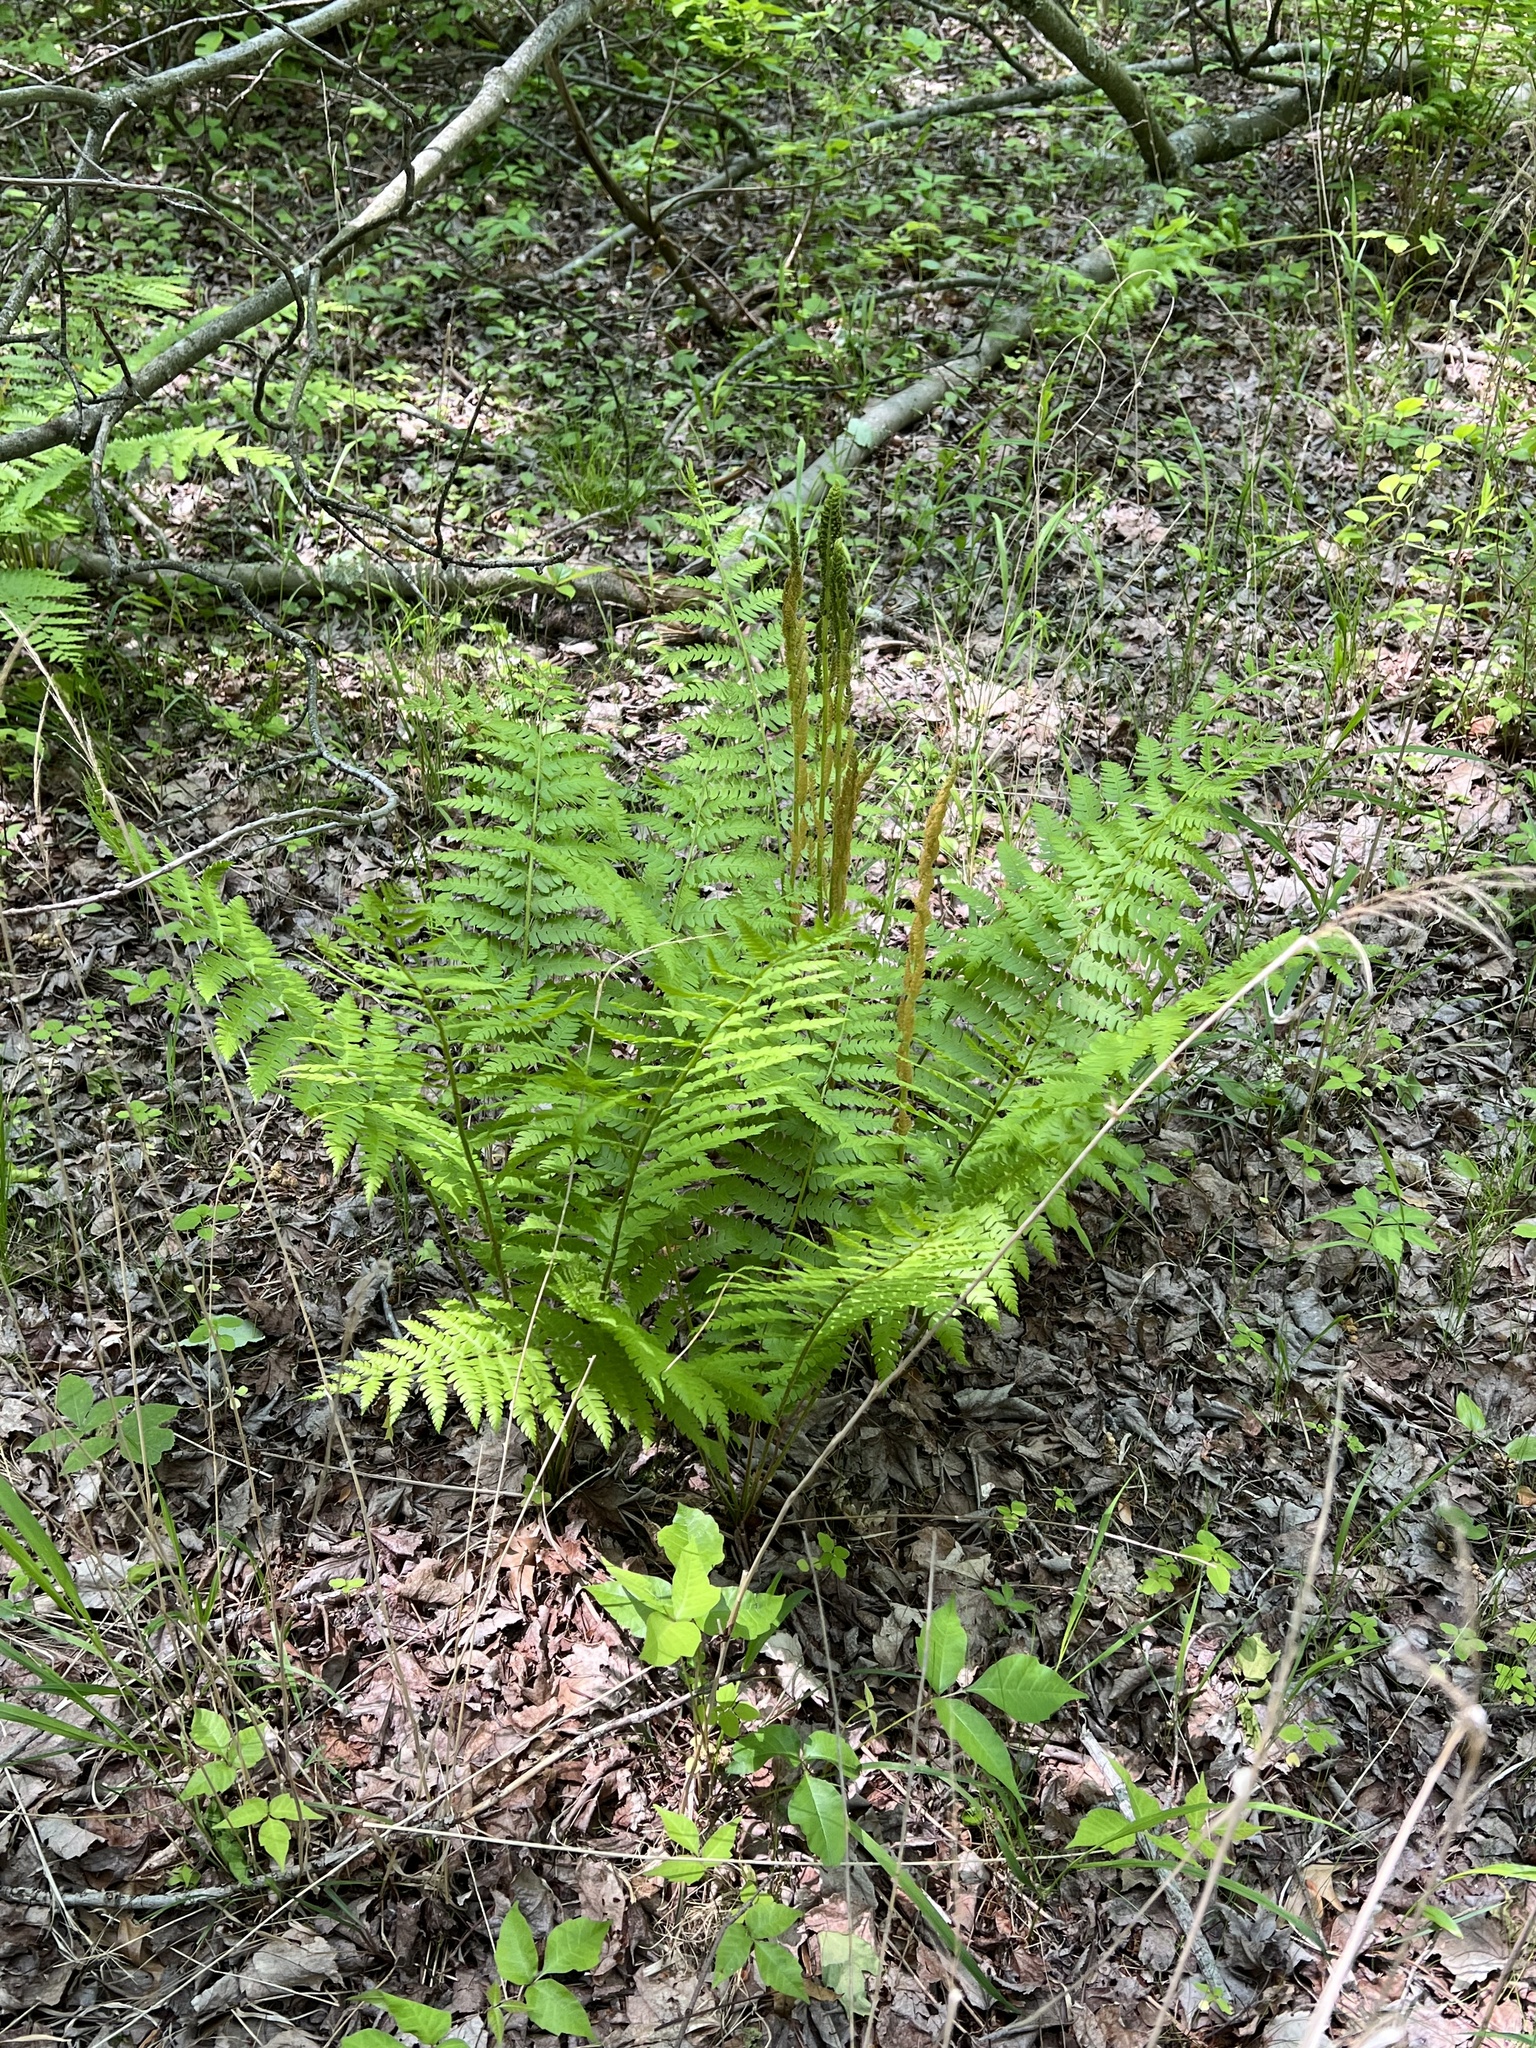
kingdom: Plantae
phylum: Tracheophyta
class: Polypodiopsida
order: Osmundales
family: Osmundaceae
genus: Osmundastrum
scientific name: Osmundastrum cinnamomeum
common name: Cinnamon fern
